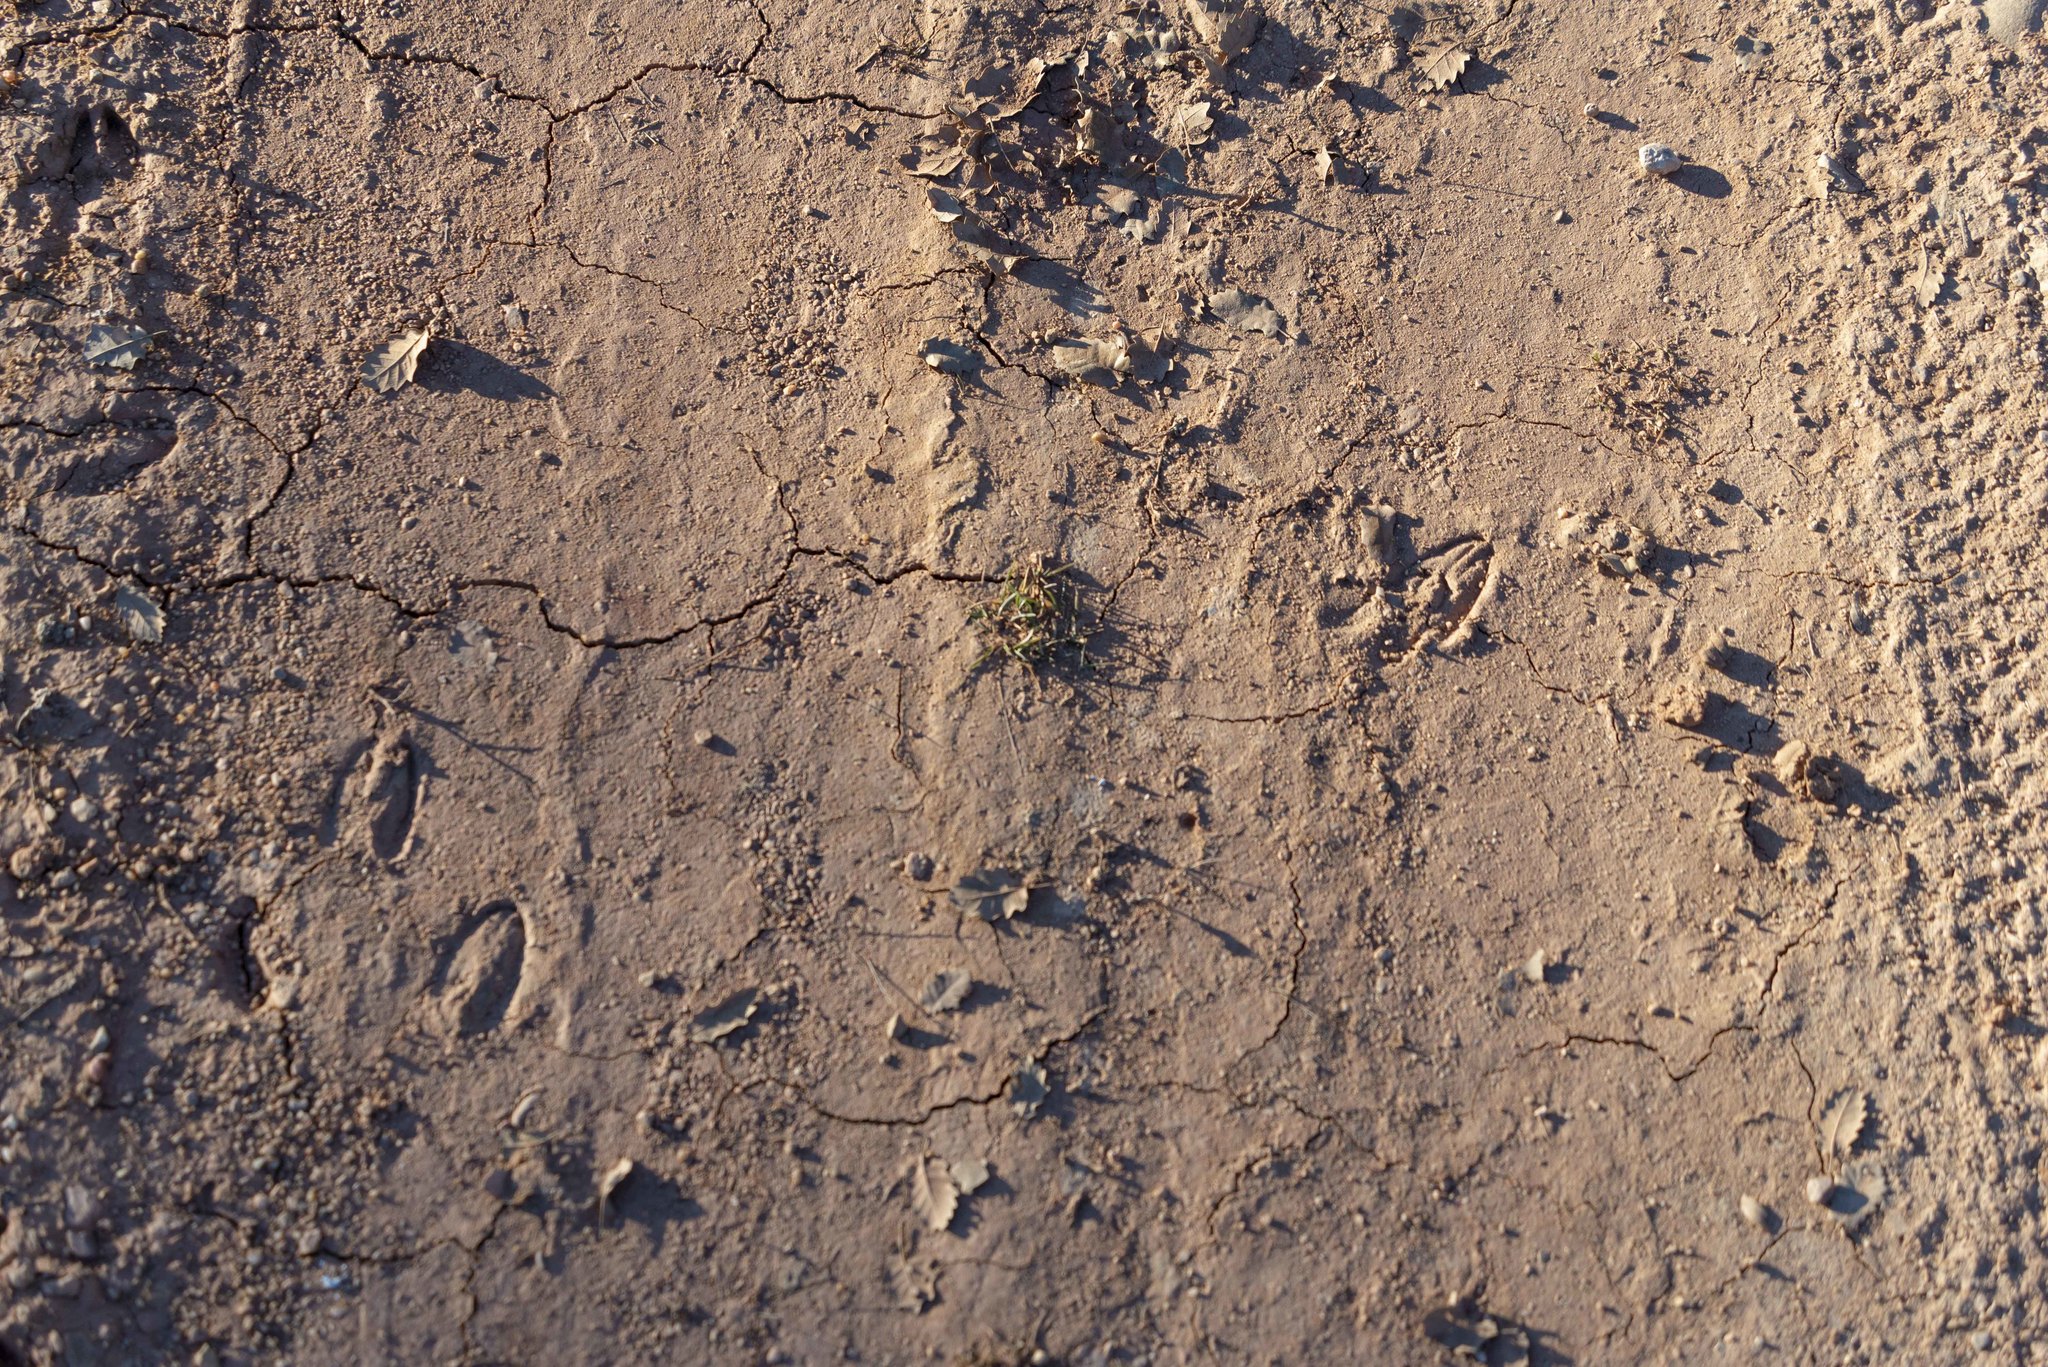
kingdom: Animalia
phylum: Chordata
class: Mammalia
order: Artiodactyla
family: Cervidae
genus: Capreolus
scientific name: Capreolus capreolus
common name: Western roe deer
